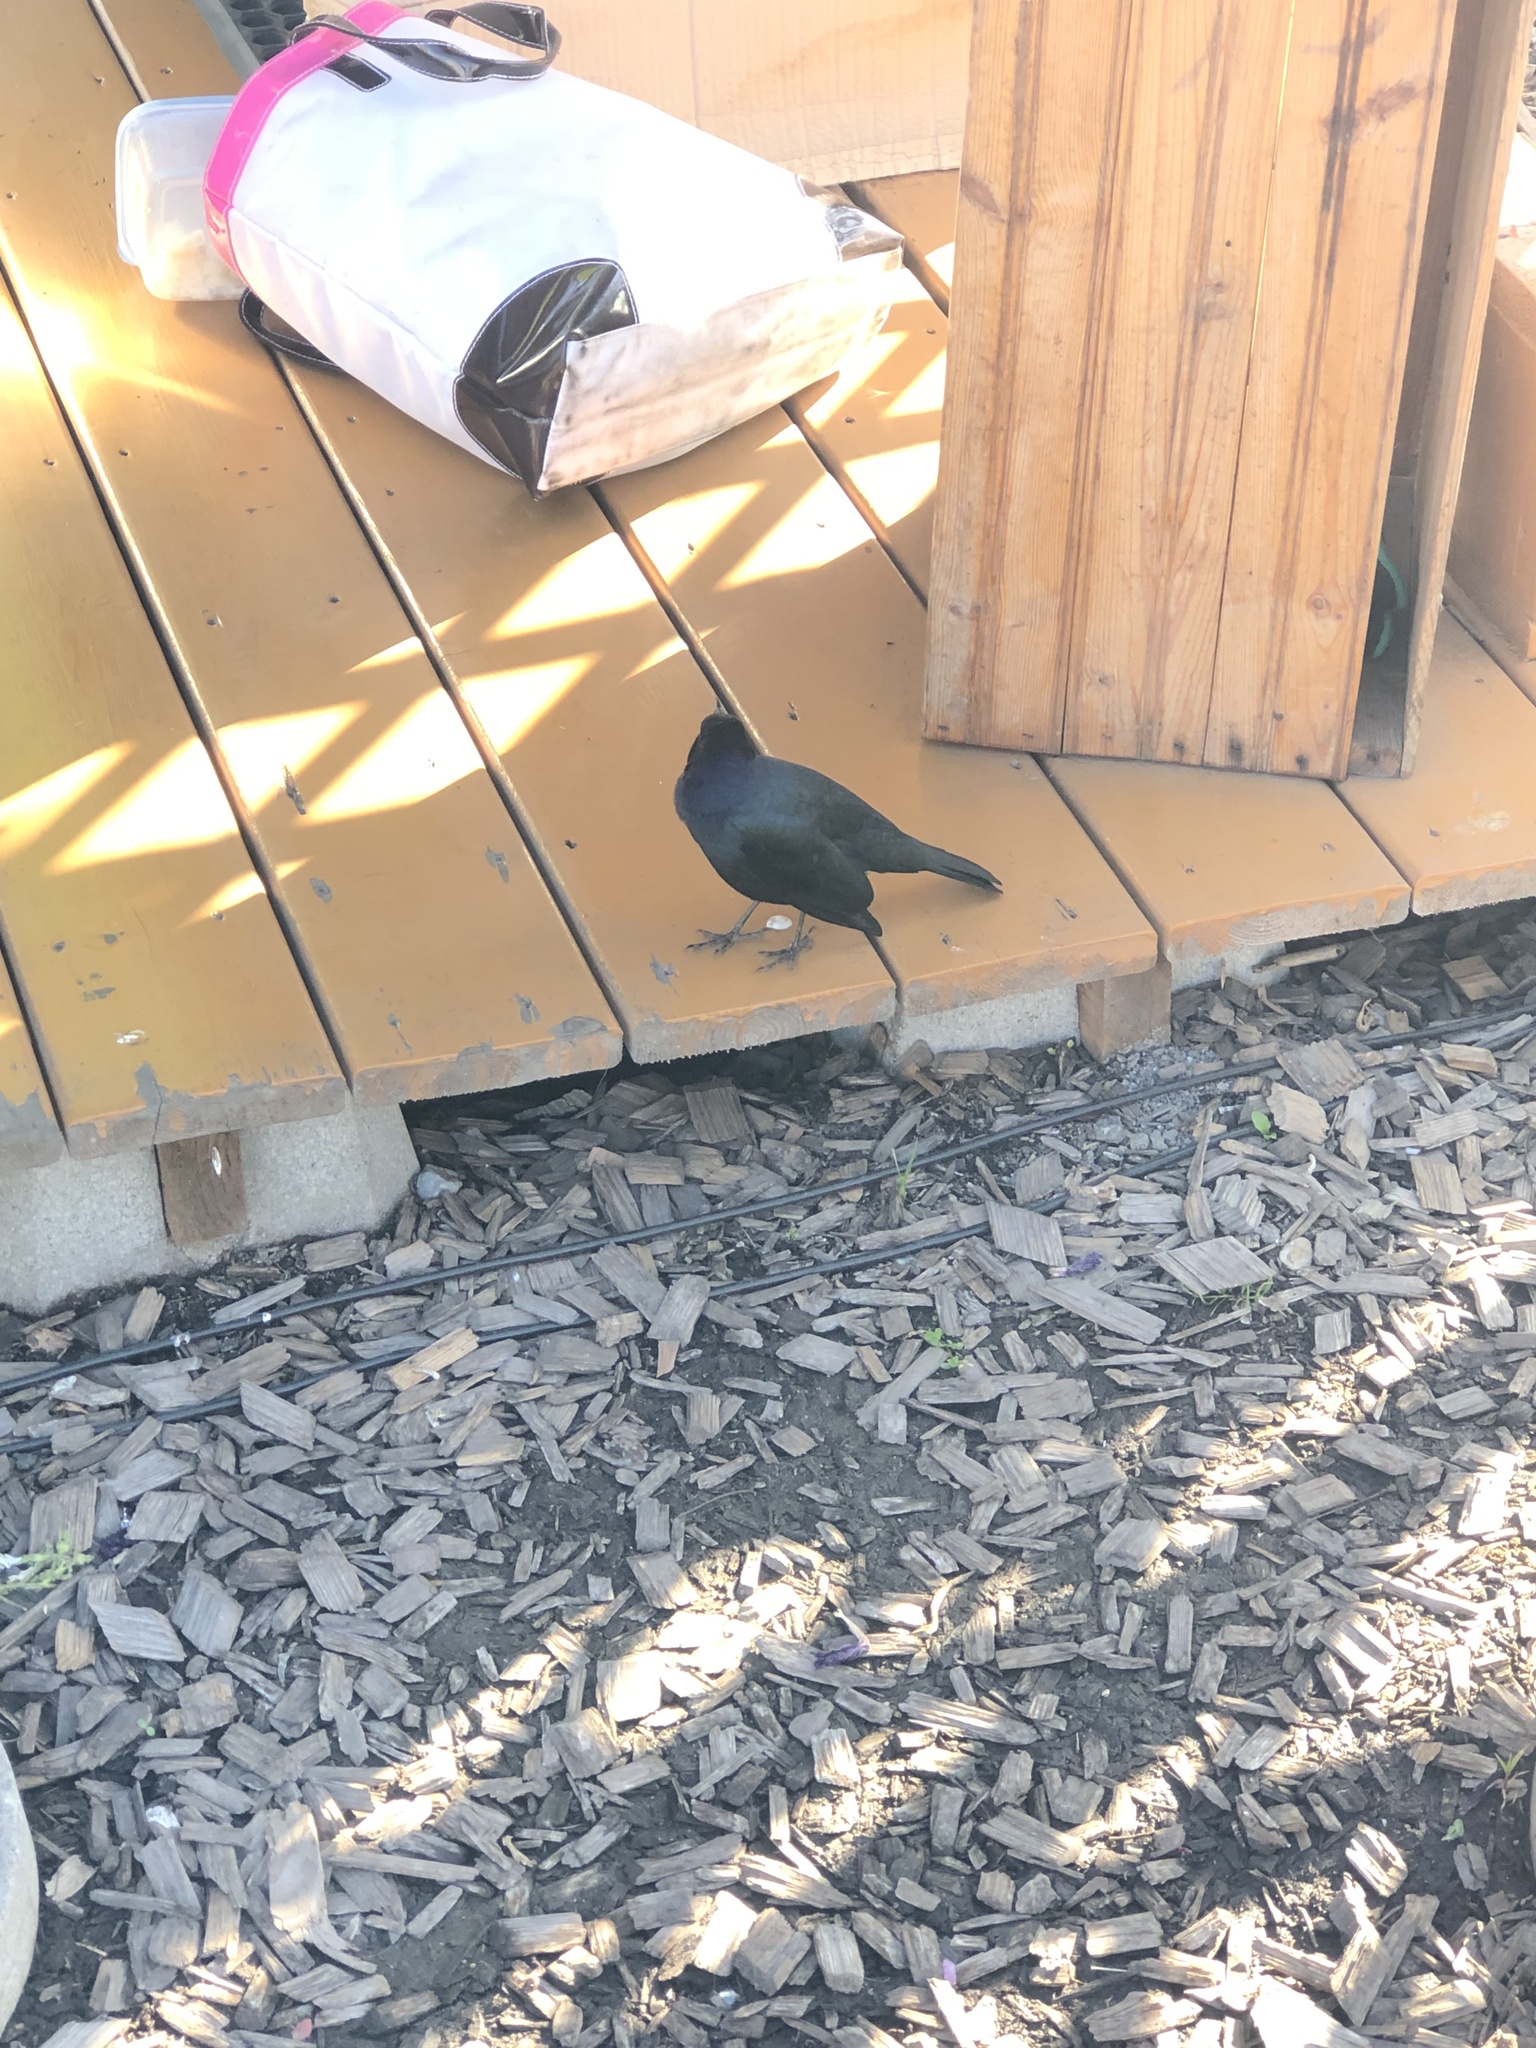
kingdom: Animalia
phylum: Chordata
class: Aves
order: Passeriformes
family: Icteridae
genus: Euphagus
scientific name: Euphagus cyanocephalus
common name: Brewer's blackbird
